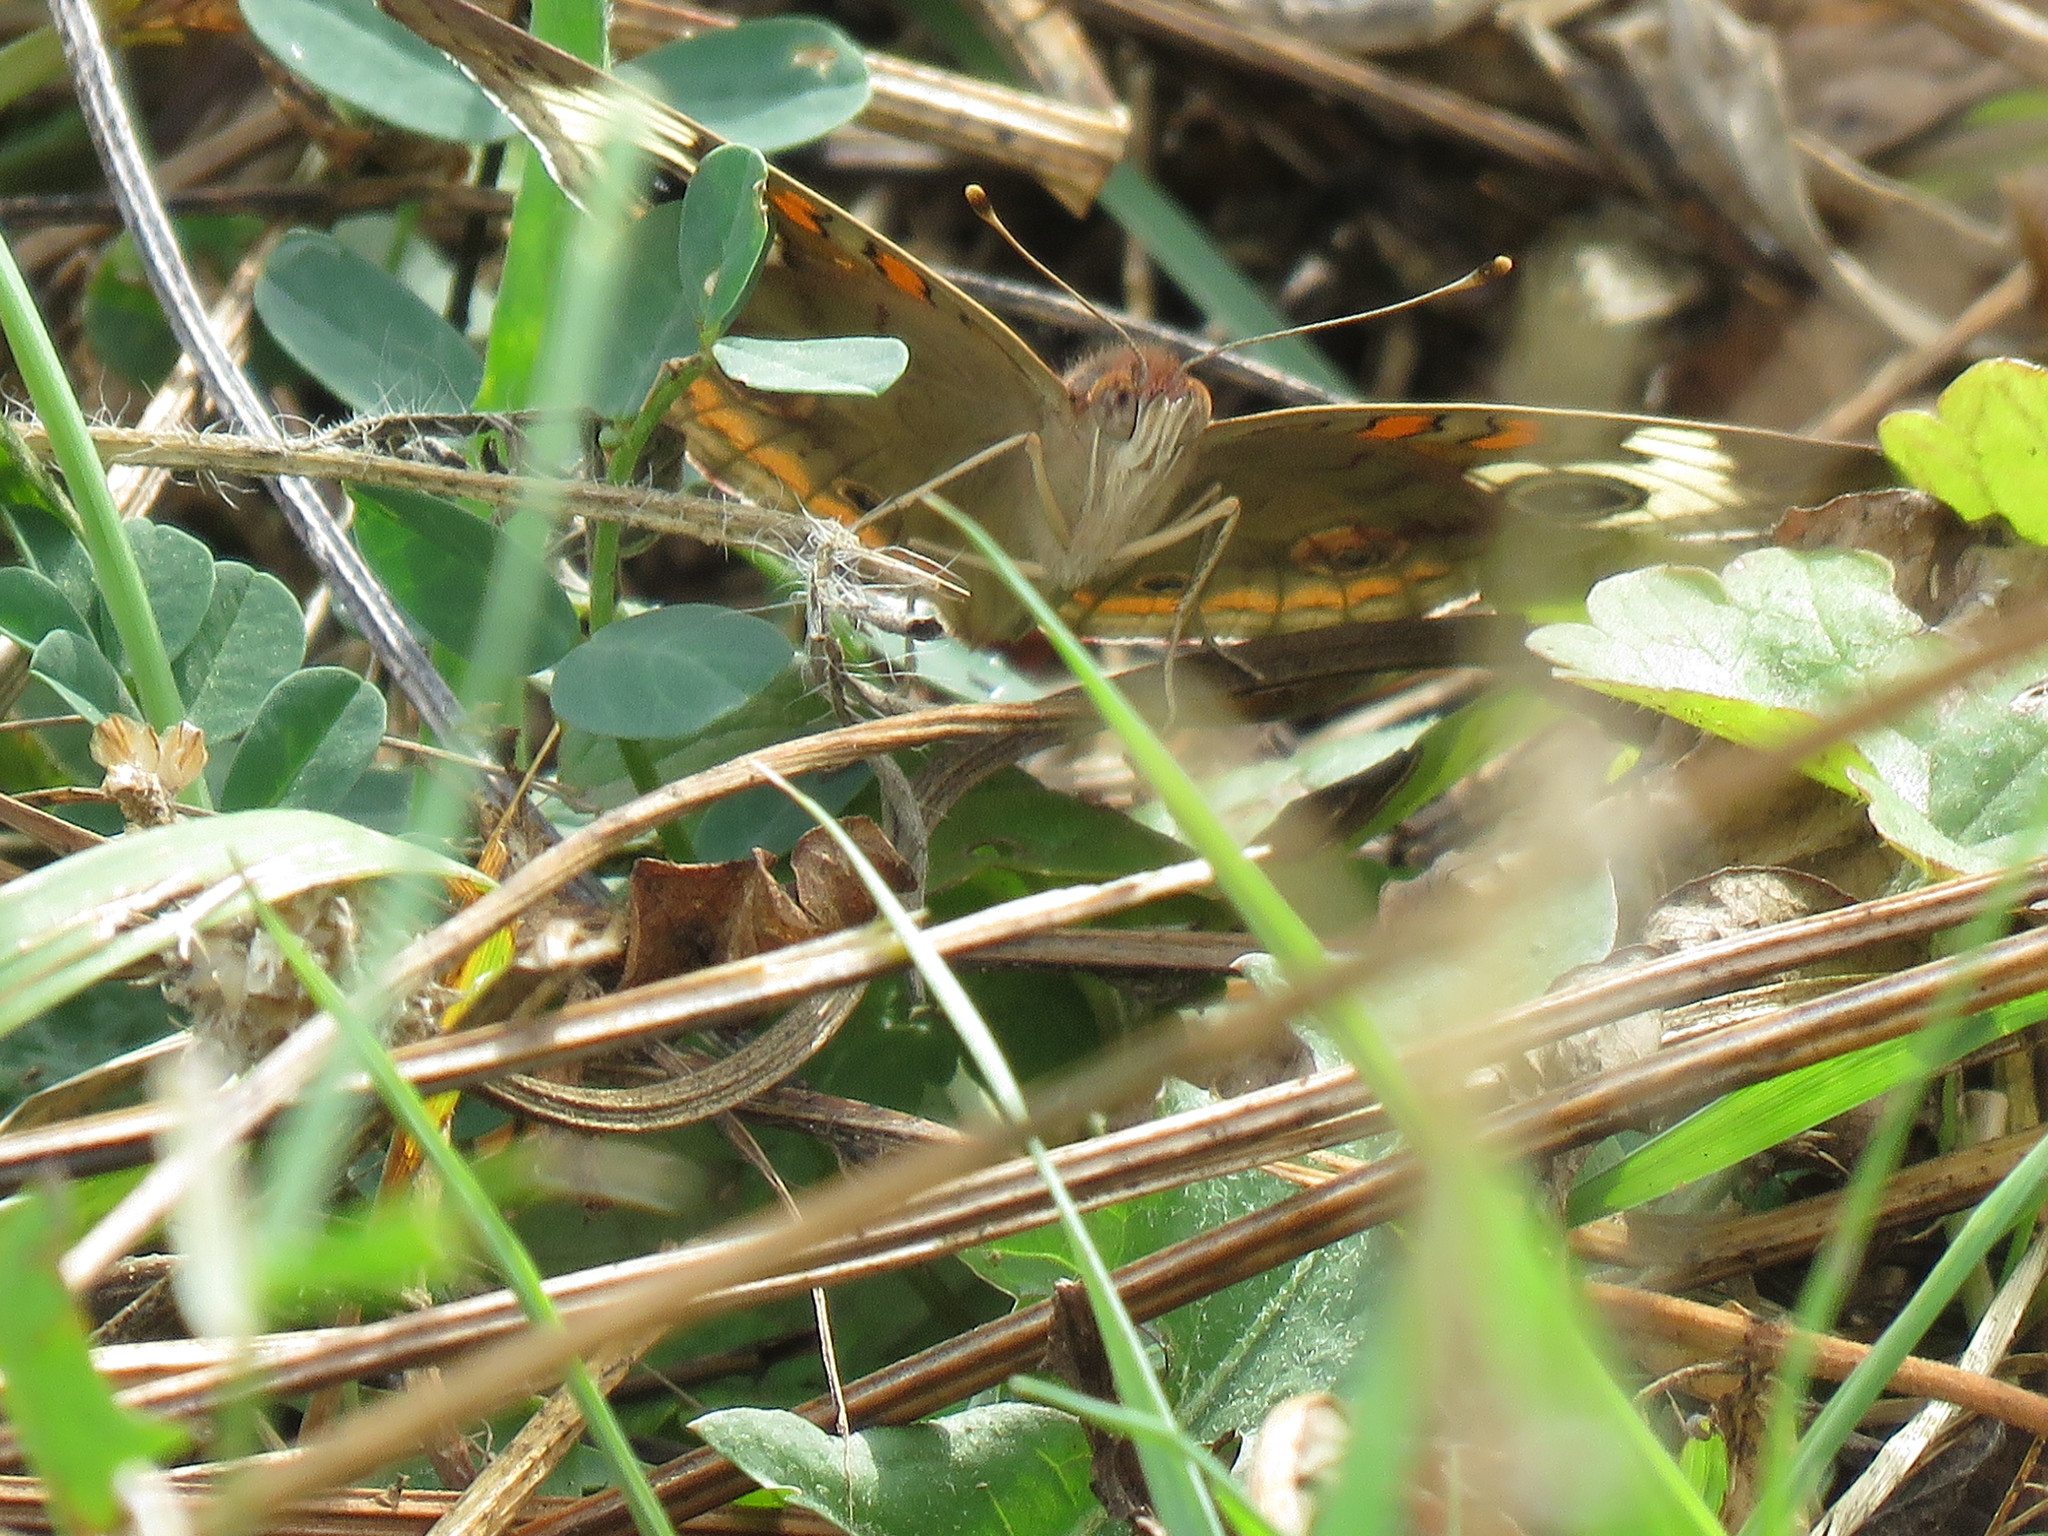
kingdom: Animalia
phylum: Arthropoda
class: Insecta
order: Lepidoptera
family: Nymphalidae
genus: Junonia
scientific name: Junonia coenia
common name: Common buckeye
